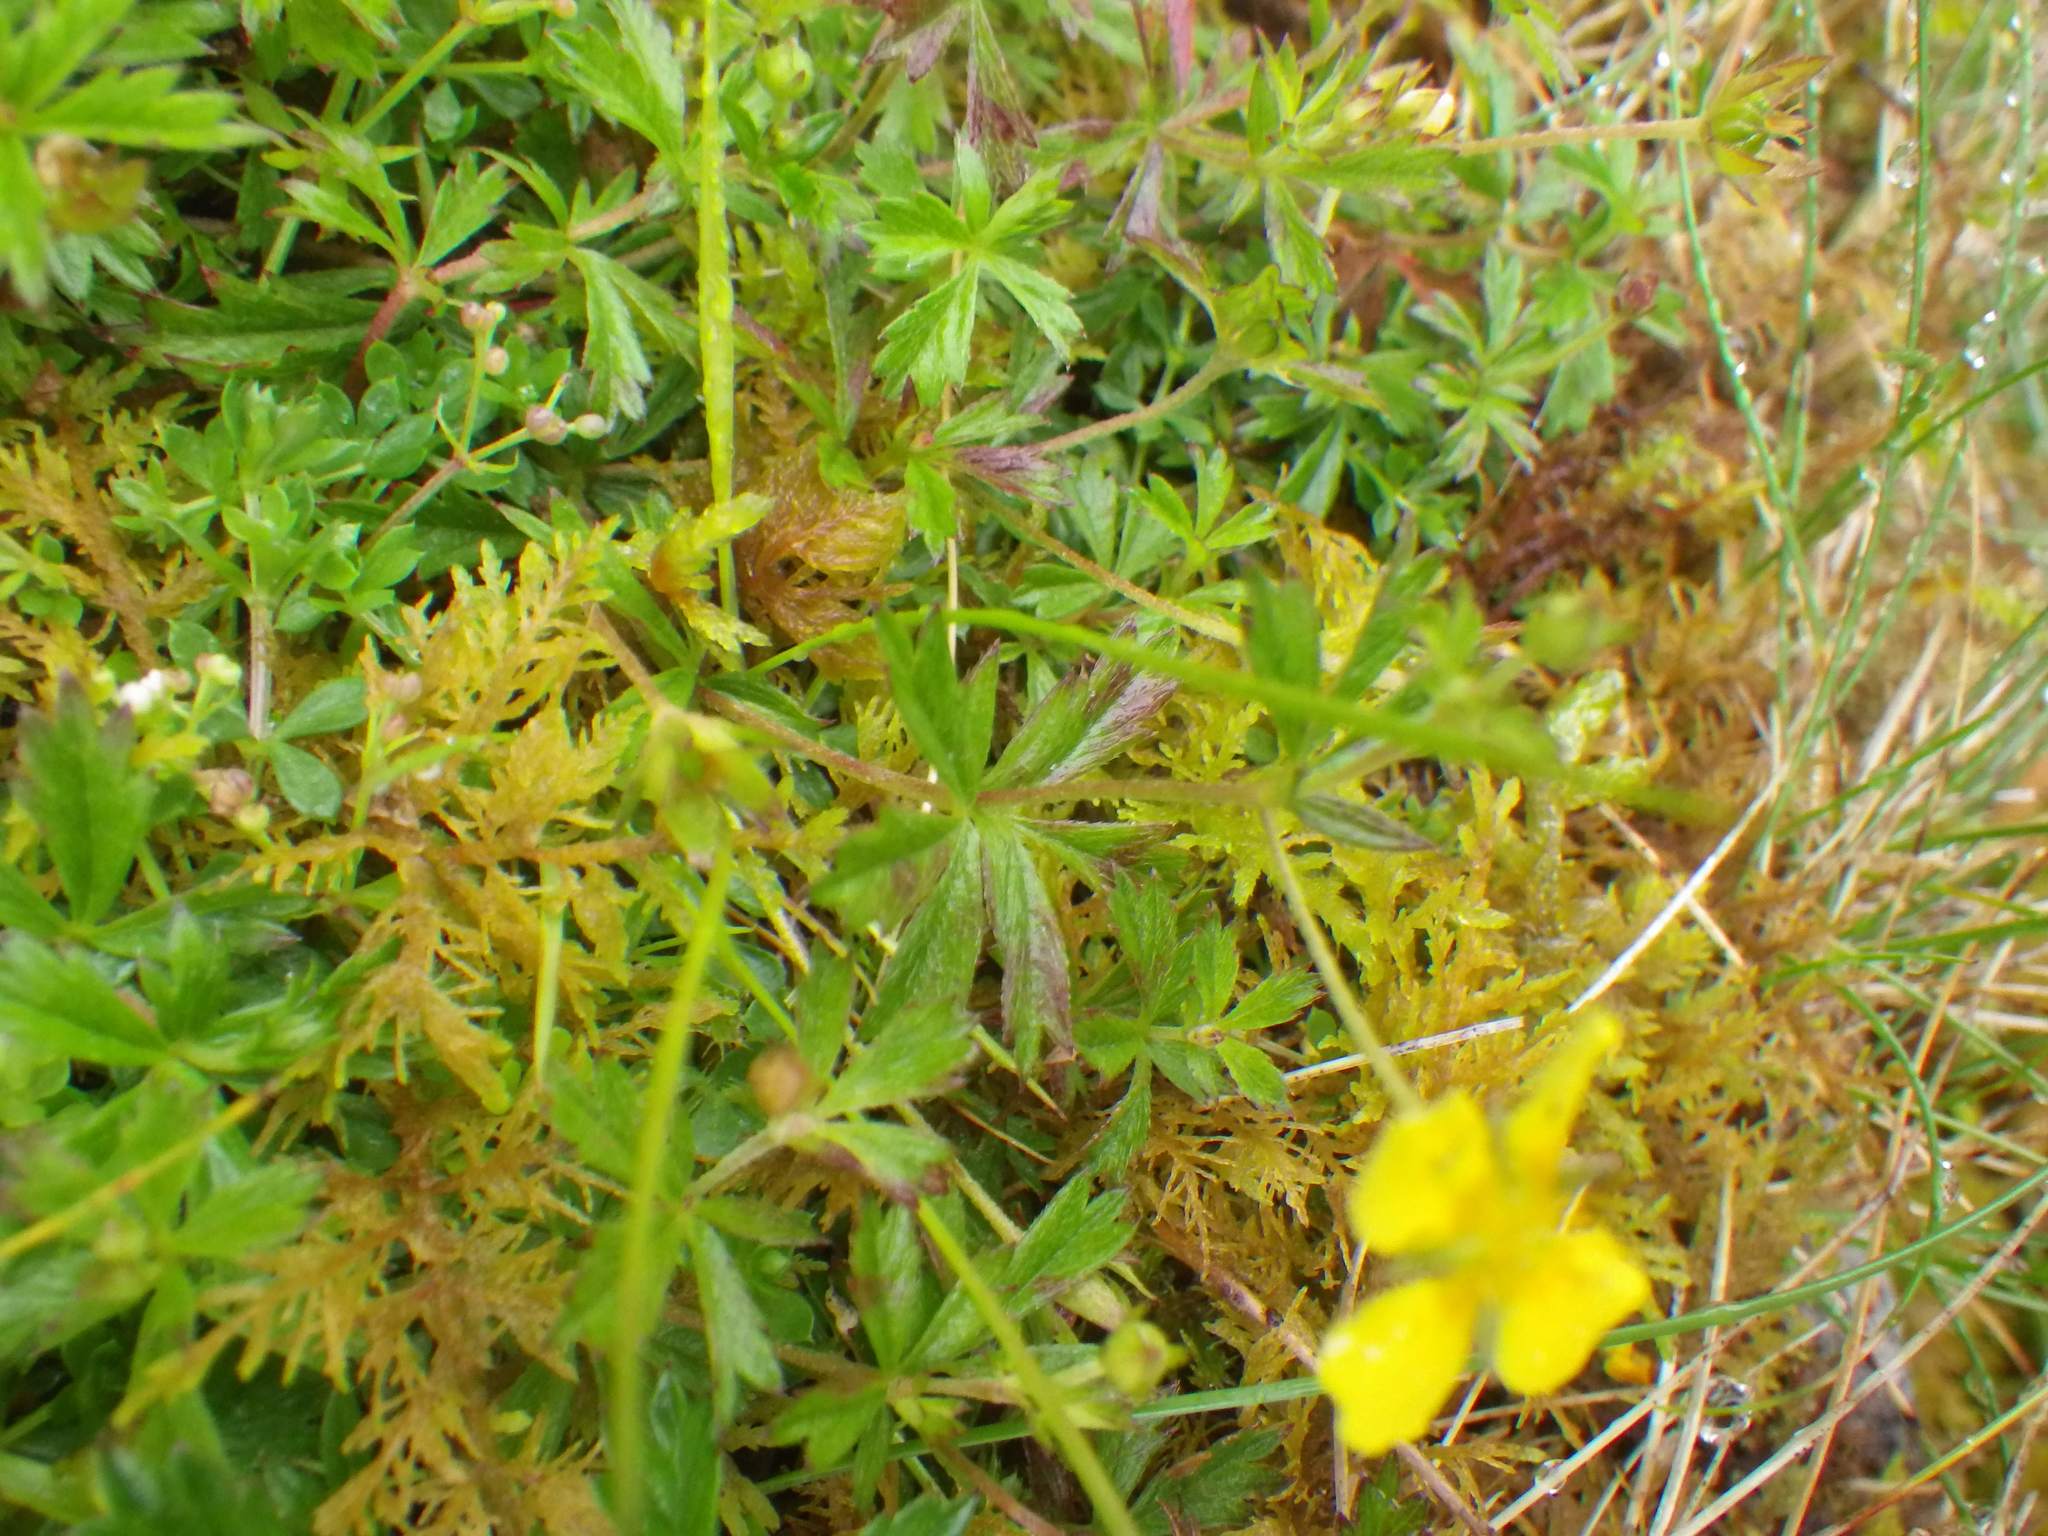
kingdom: Plantae
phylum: Tracheophyta
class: Magnoliopsida
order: Rosales
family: Rosaceae
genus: Potentilla
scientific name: Potentilla erecta
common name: Tormentil
